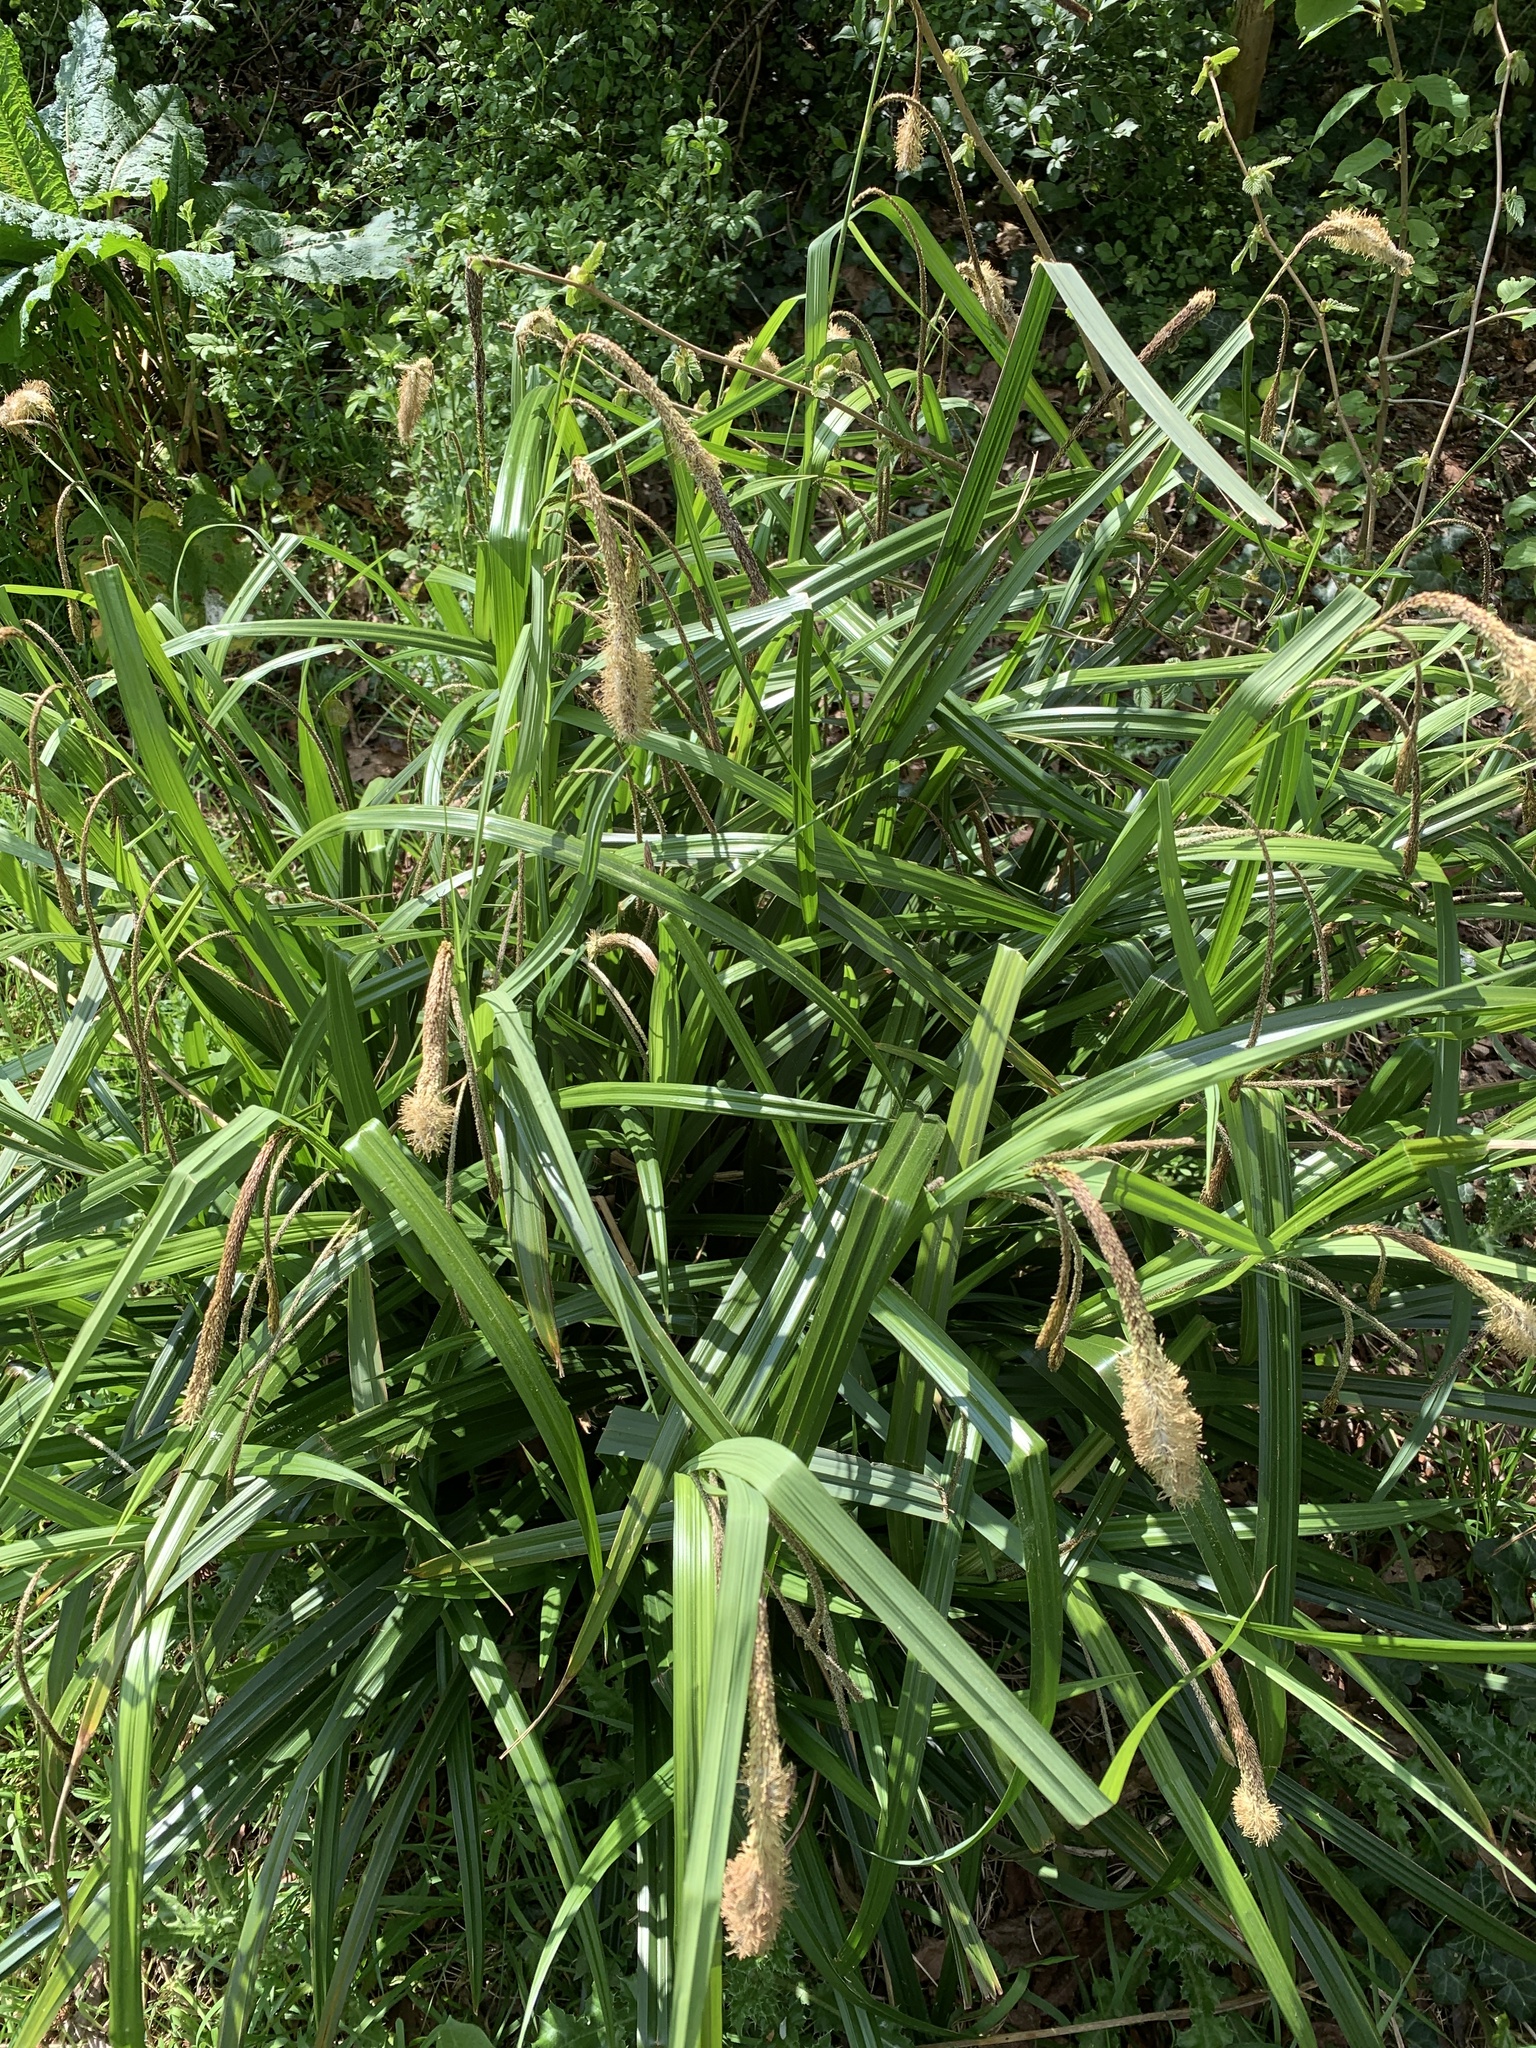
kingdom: Plantae
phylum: Tracheophyta
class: Liliopsida
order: Poales
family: Cyperaceae
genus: Carex
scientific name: Carex pendula
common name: Pendulous sedge
